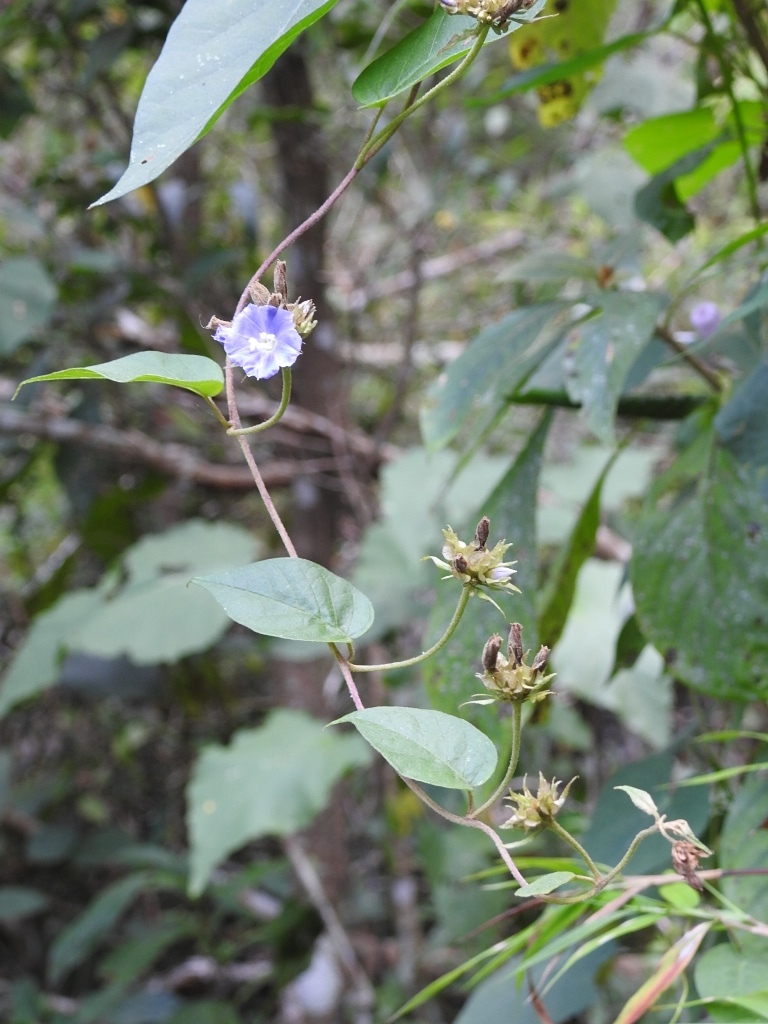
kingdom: Plantae
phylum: Tracheophyta
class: Magnoliopsida
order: Solanales
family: Convolvulaceae
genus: Jacquemontia
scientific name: Jacquemontia pentanthos
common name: Skyblue clustervine
